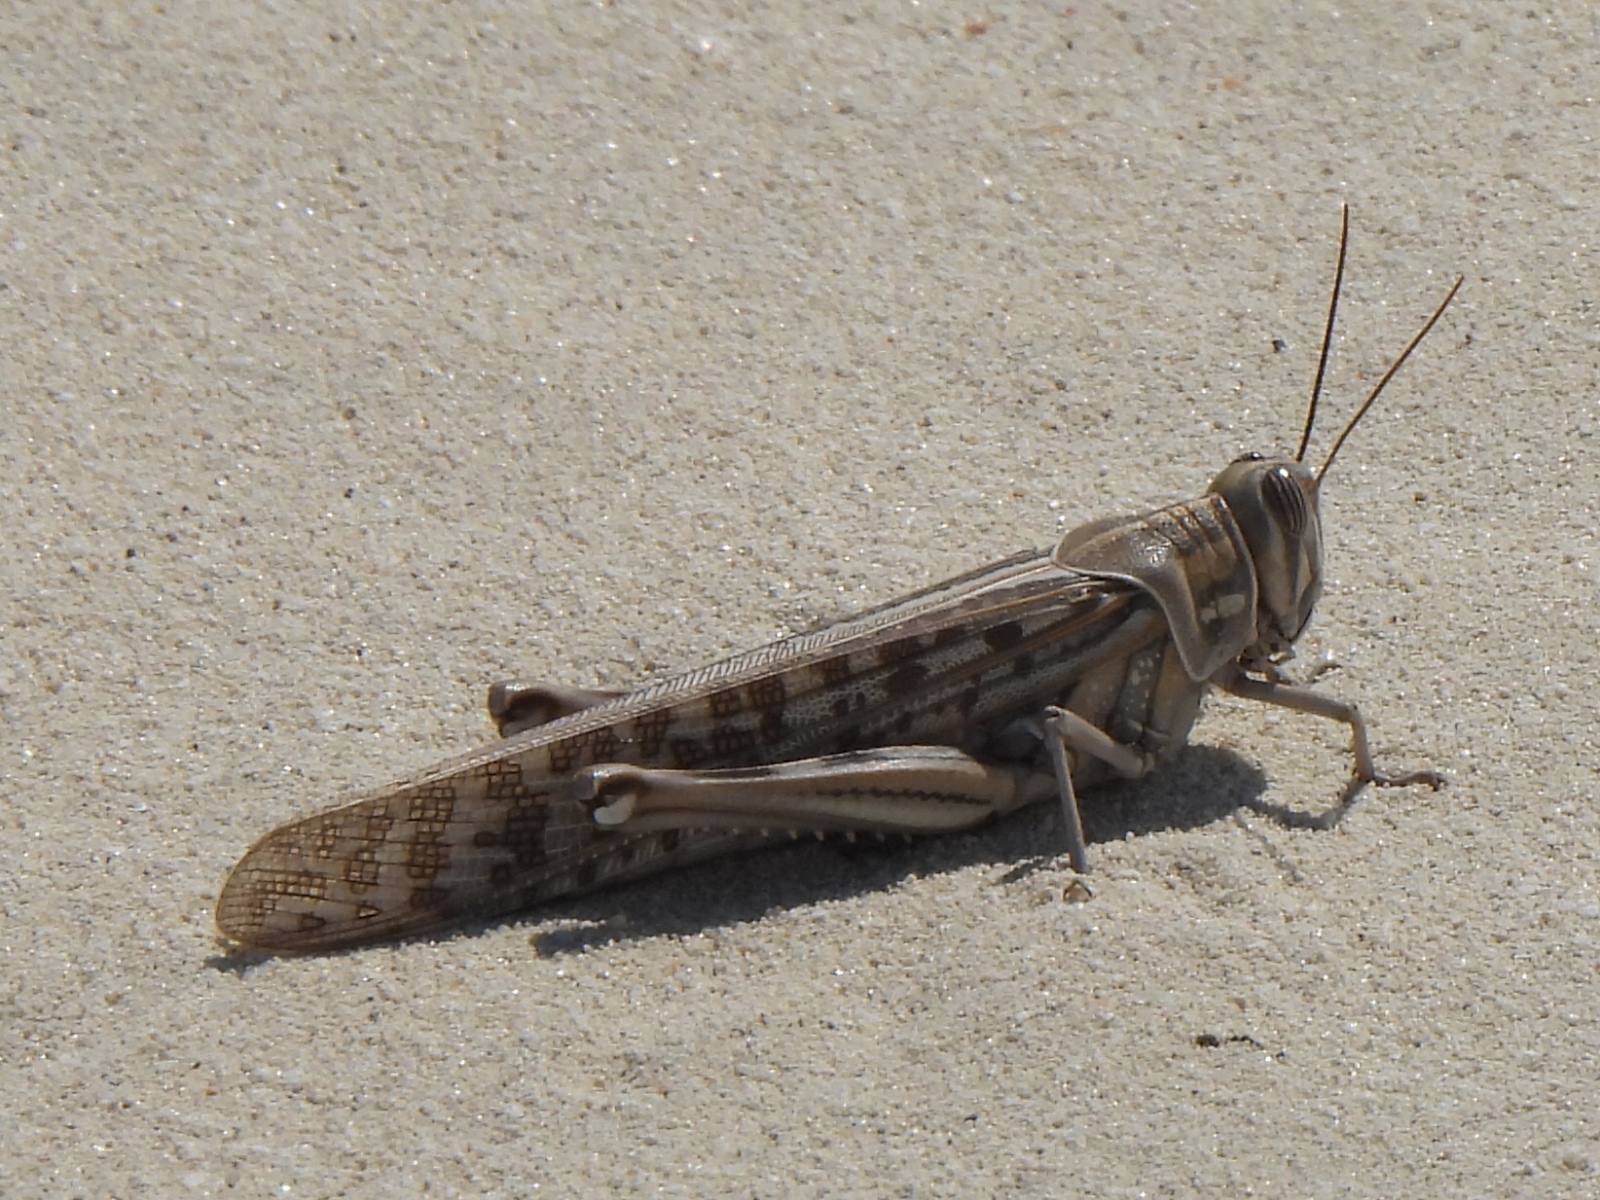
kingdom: Animalia
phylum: Arthropoda
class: Insecta
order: Orthoptera
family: Acrididae
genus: Schistocerca
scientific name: Schistocerca gregaria
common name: Desert locust
